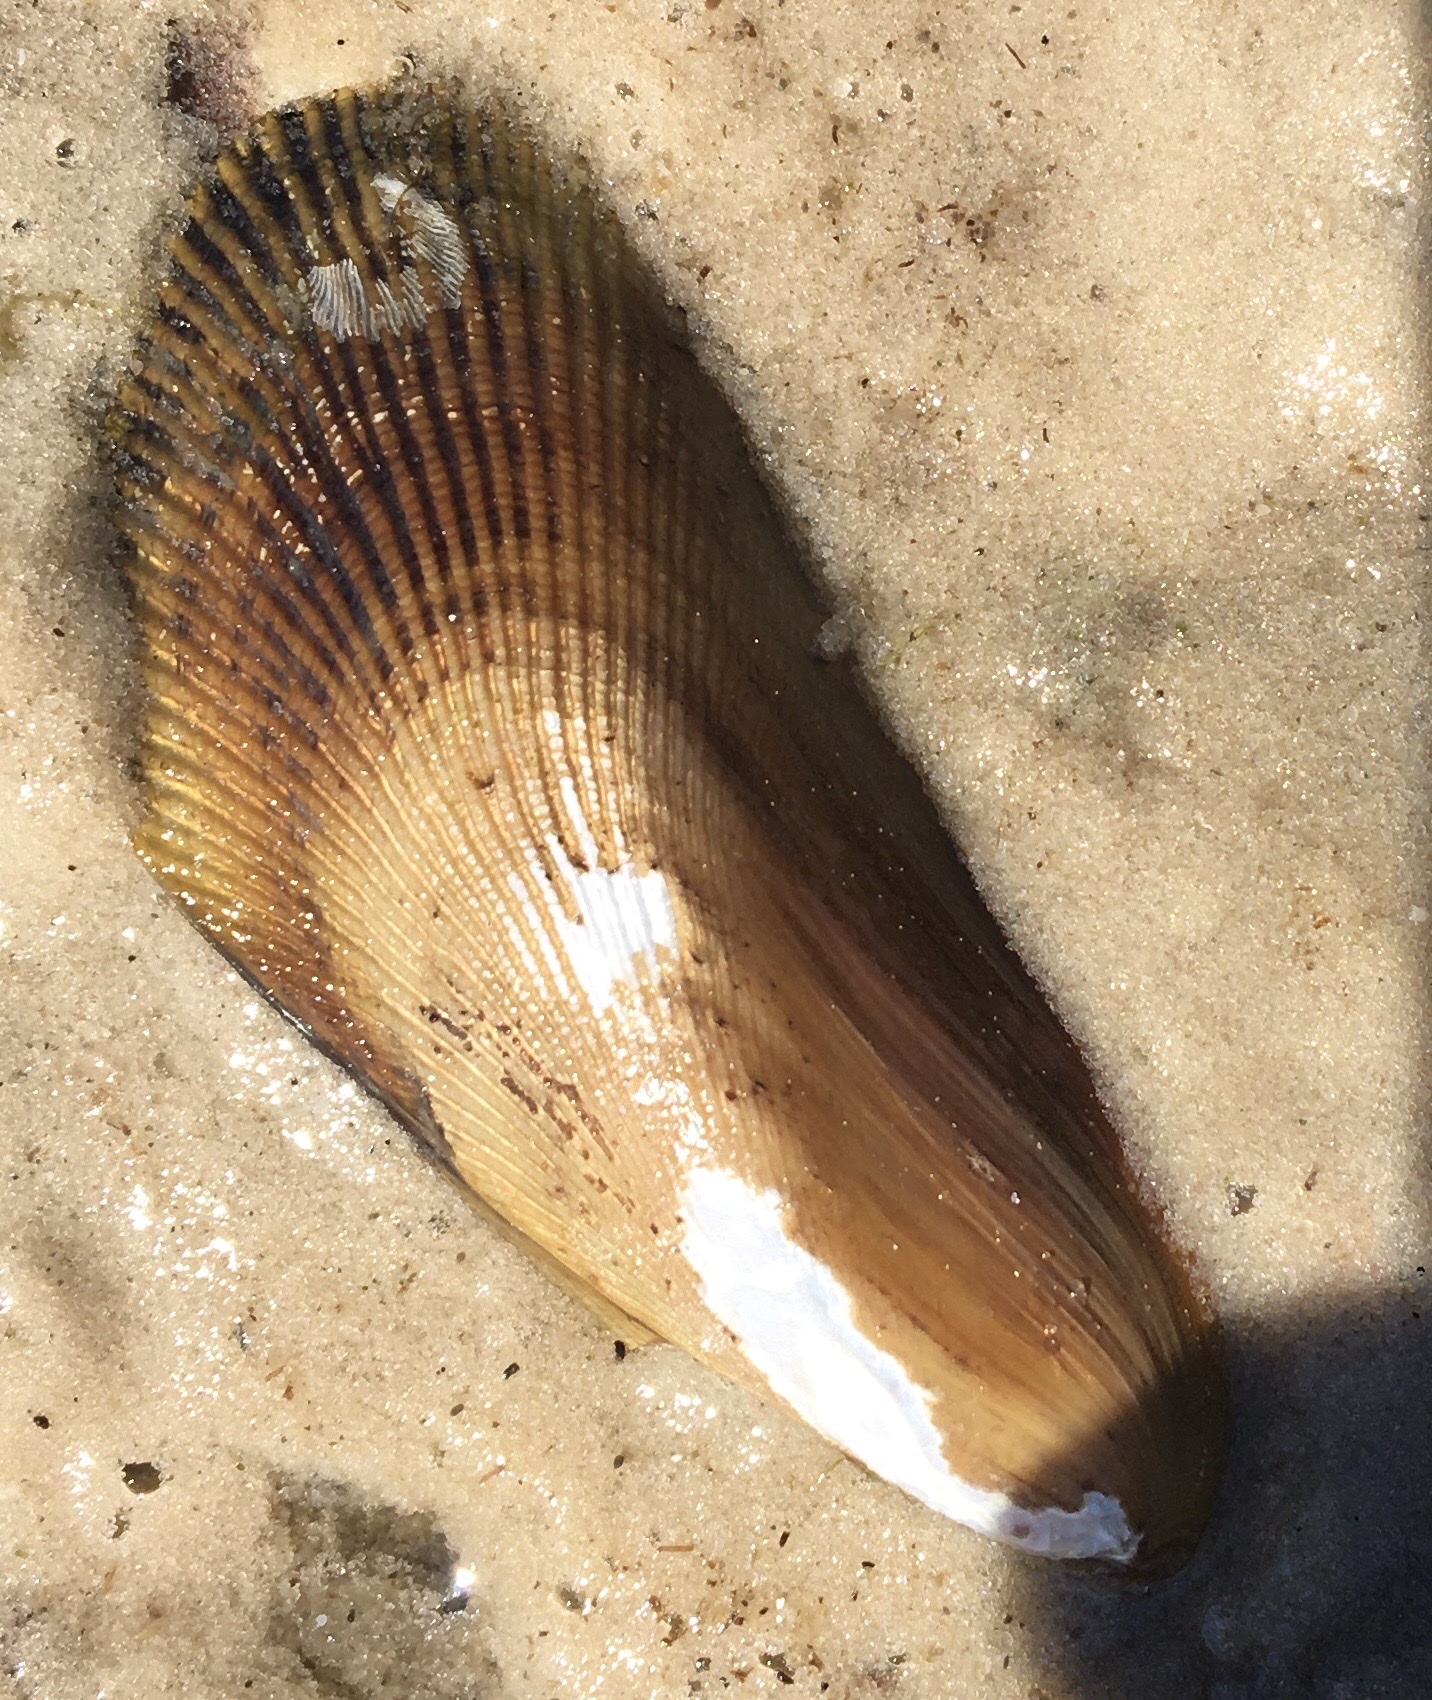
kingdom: Animalia
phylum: Mollusca
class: Bivalvia
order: Mytilida
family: Mytilidae
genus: Geukensia
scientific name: Geukensia granosissima
